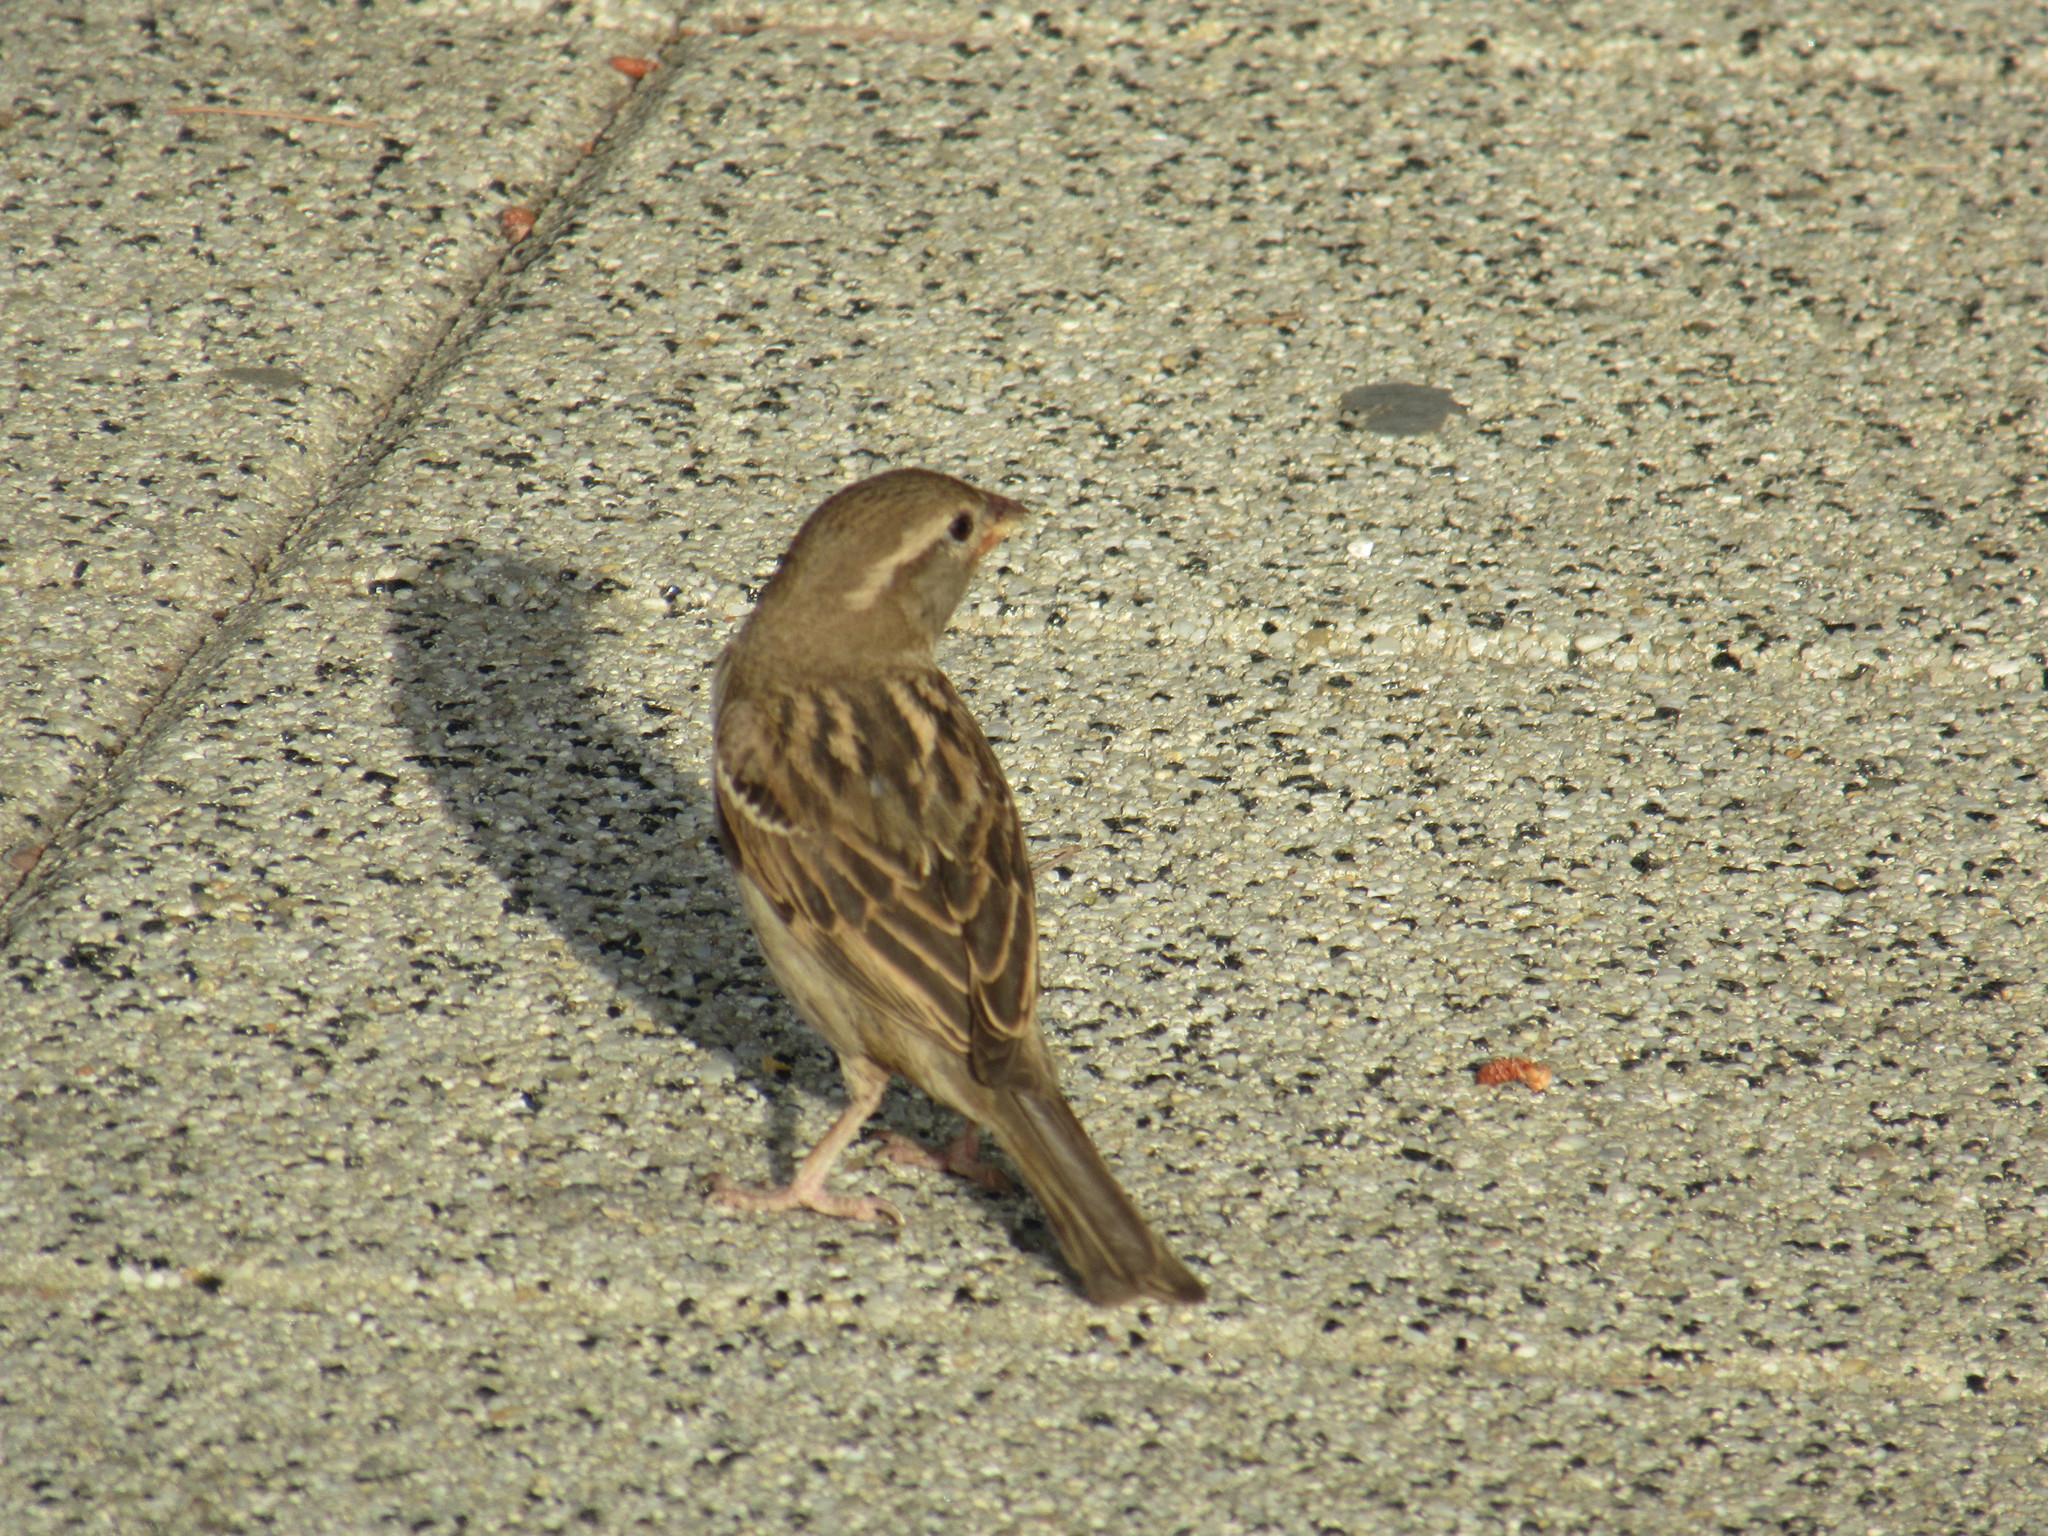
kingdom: Animalia
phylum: Chordata
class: Aves
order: Passeriformes
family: Passeridae
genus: Passer
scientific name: Passer domesticus
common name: House sparrow
